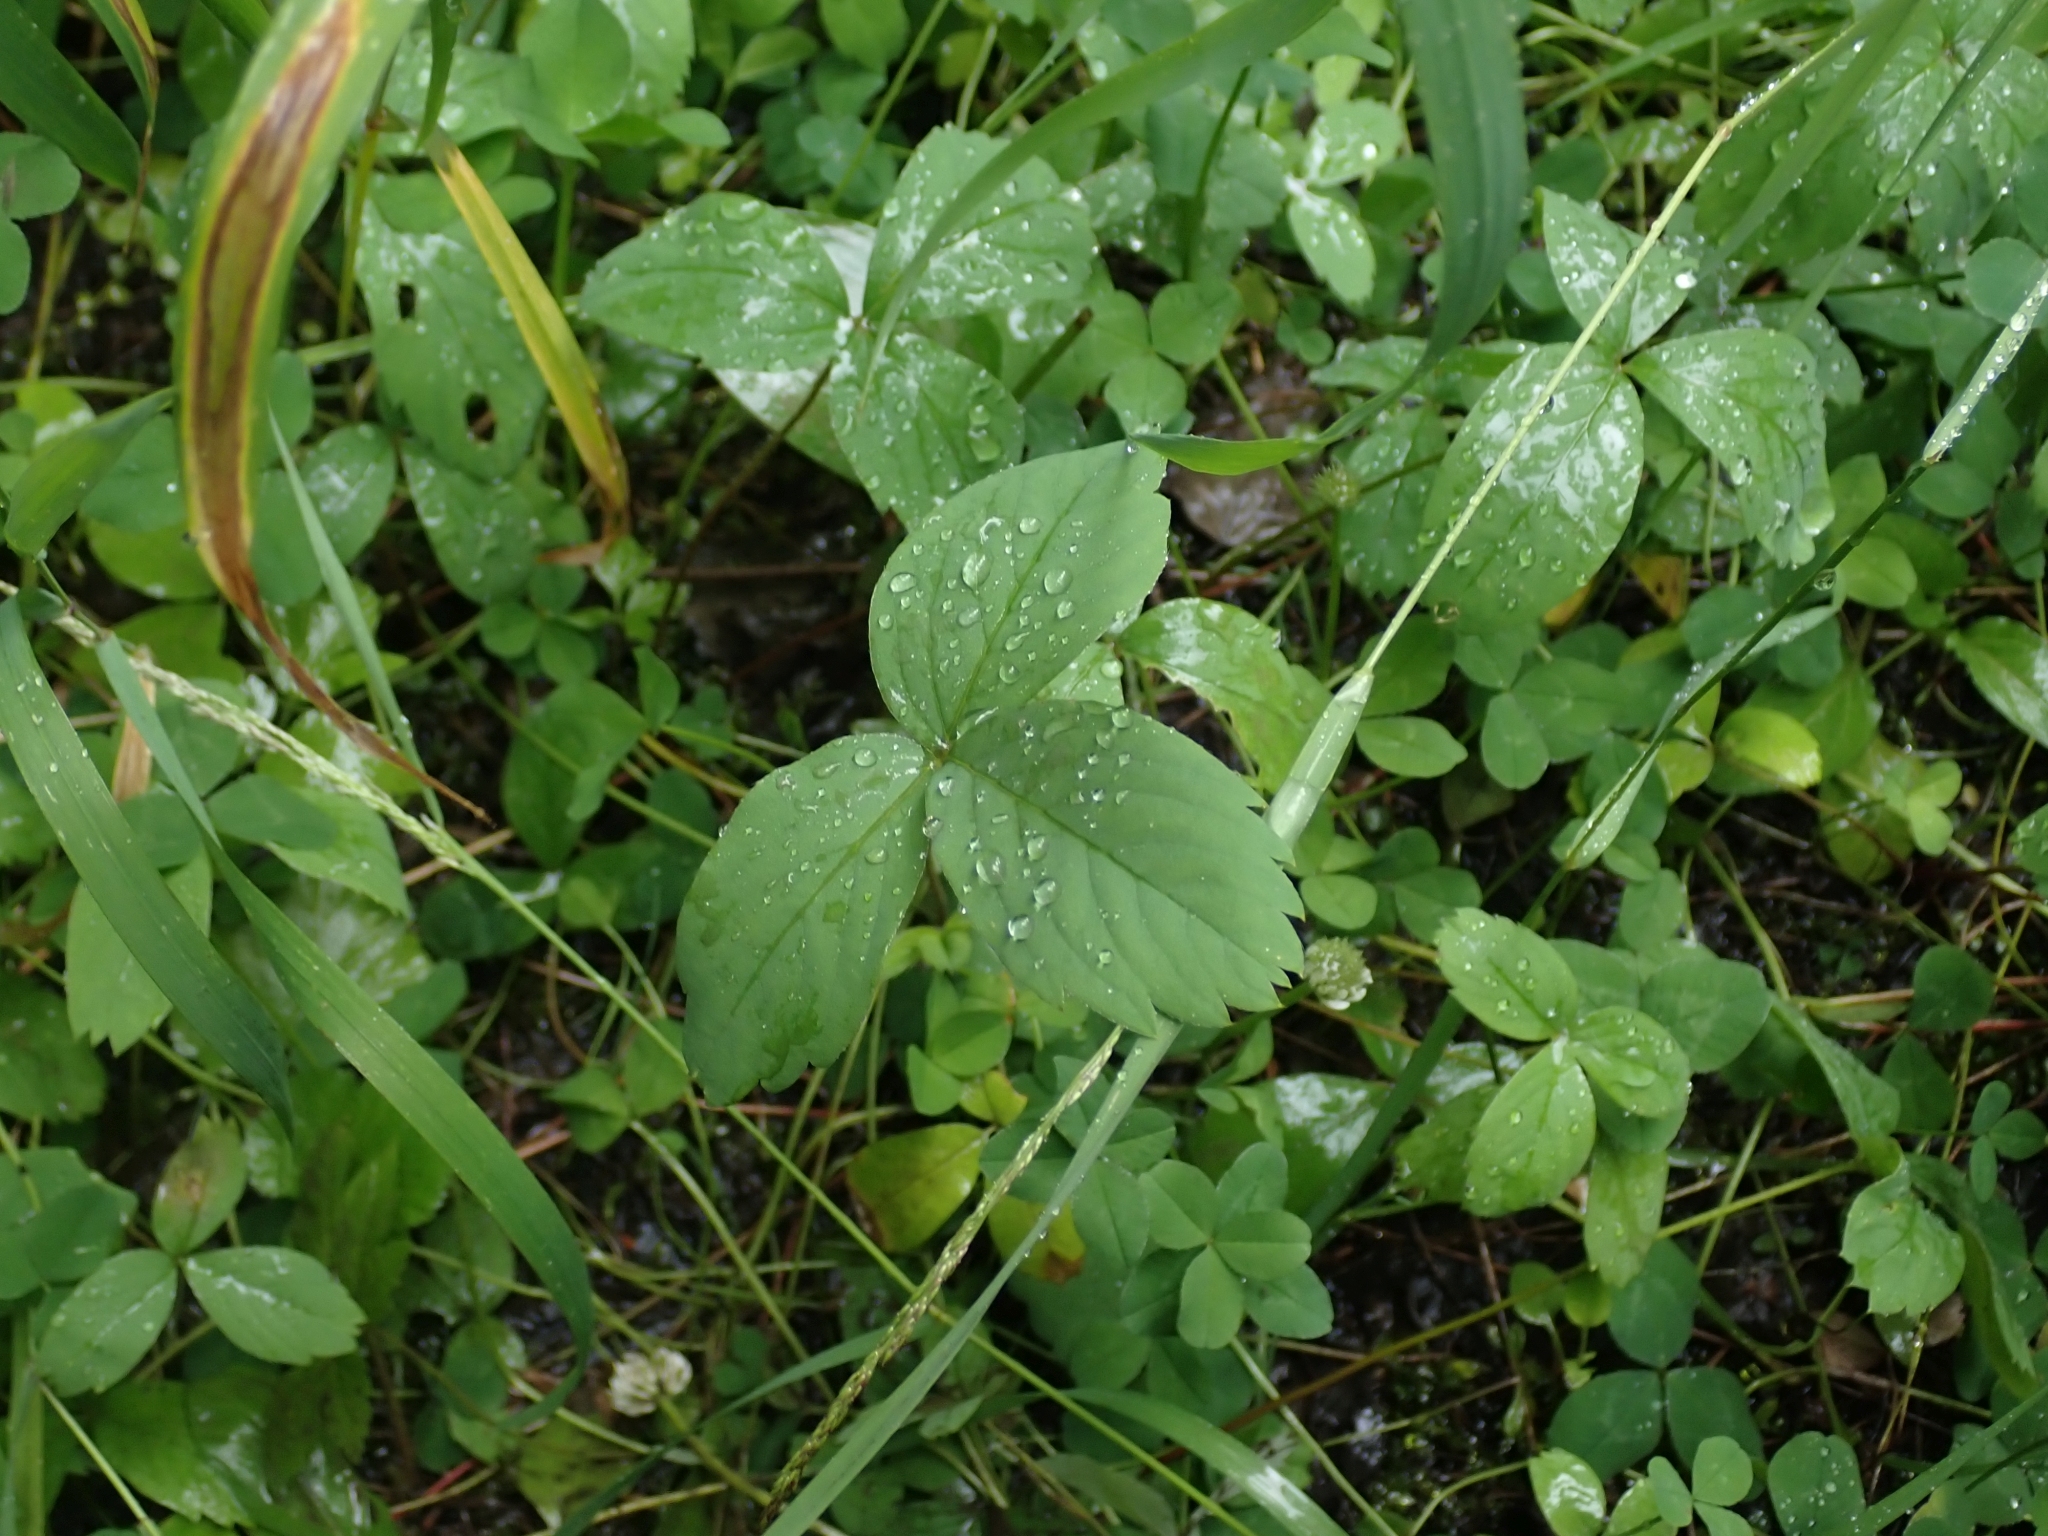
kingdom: Plantae
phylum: Tracheophyta
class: Magnoliopsida
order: Rosales
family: Rosaceae
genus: Fragaria
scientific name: Fragaria virginiana
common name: Thickleaved wild strawberry
